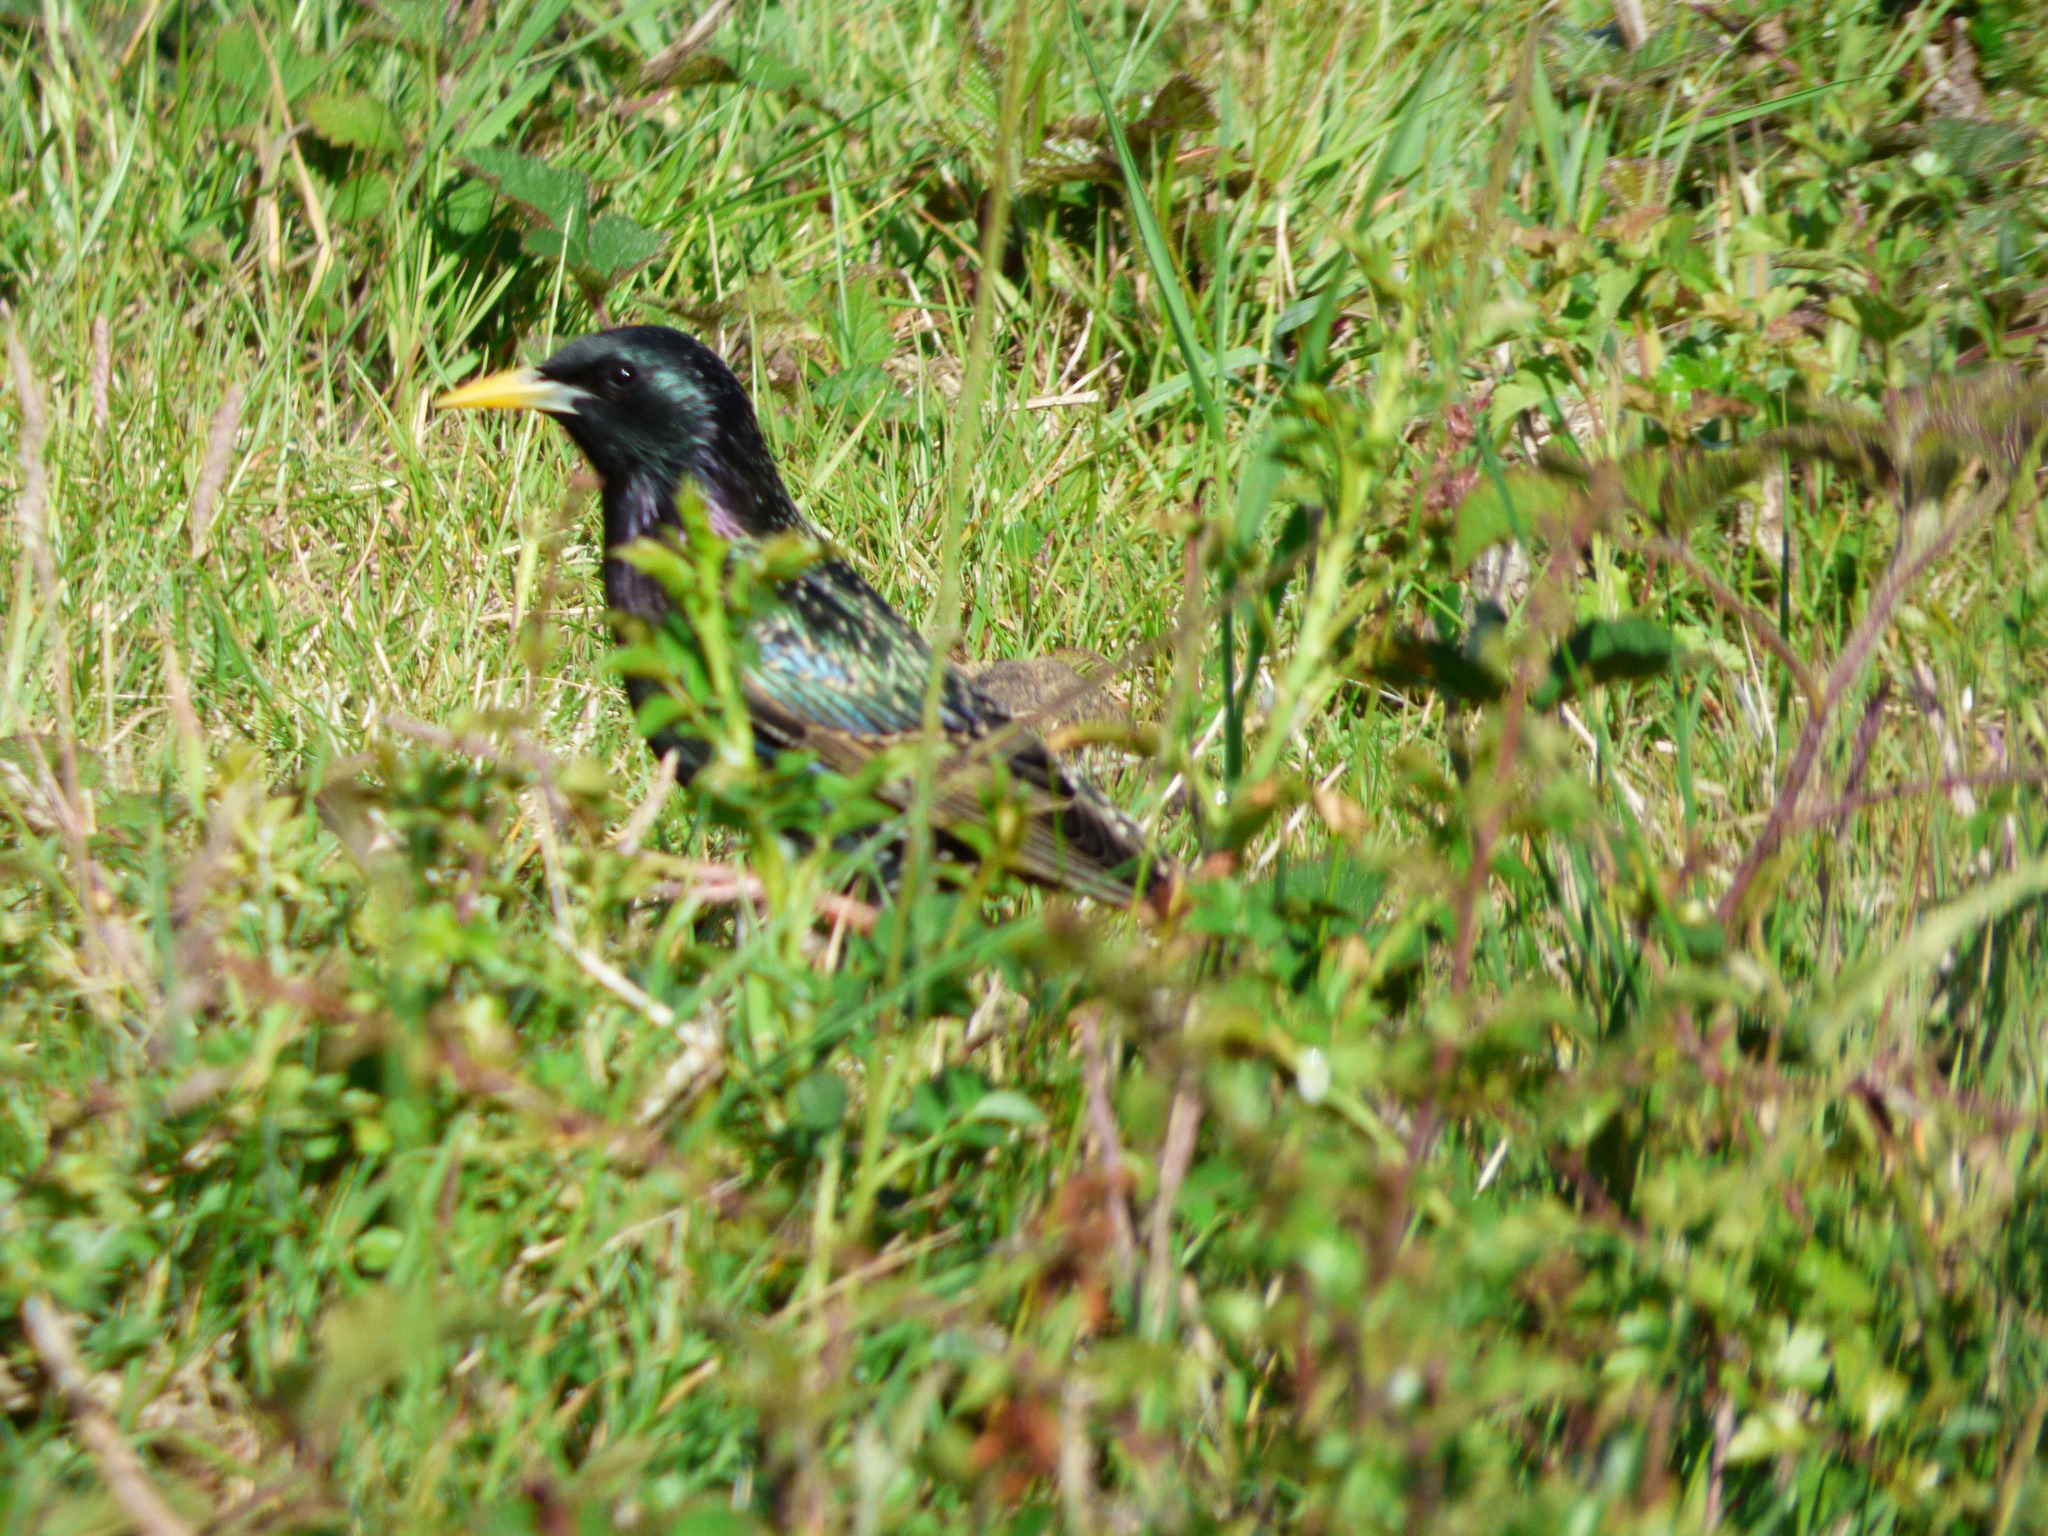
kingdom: Animalia
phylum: Chordata
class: Aves
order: Passeriformes
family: Sturnidae
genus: Sturnus
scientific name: Sturnus vulgaris
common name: Common starling
